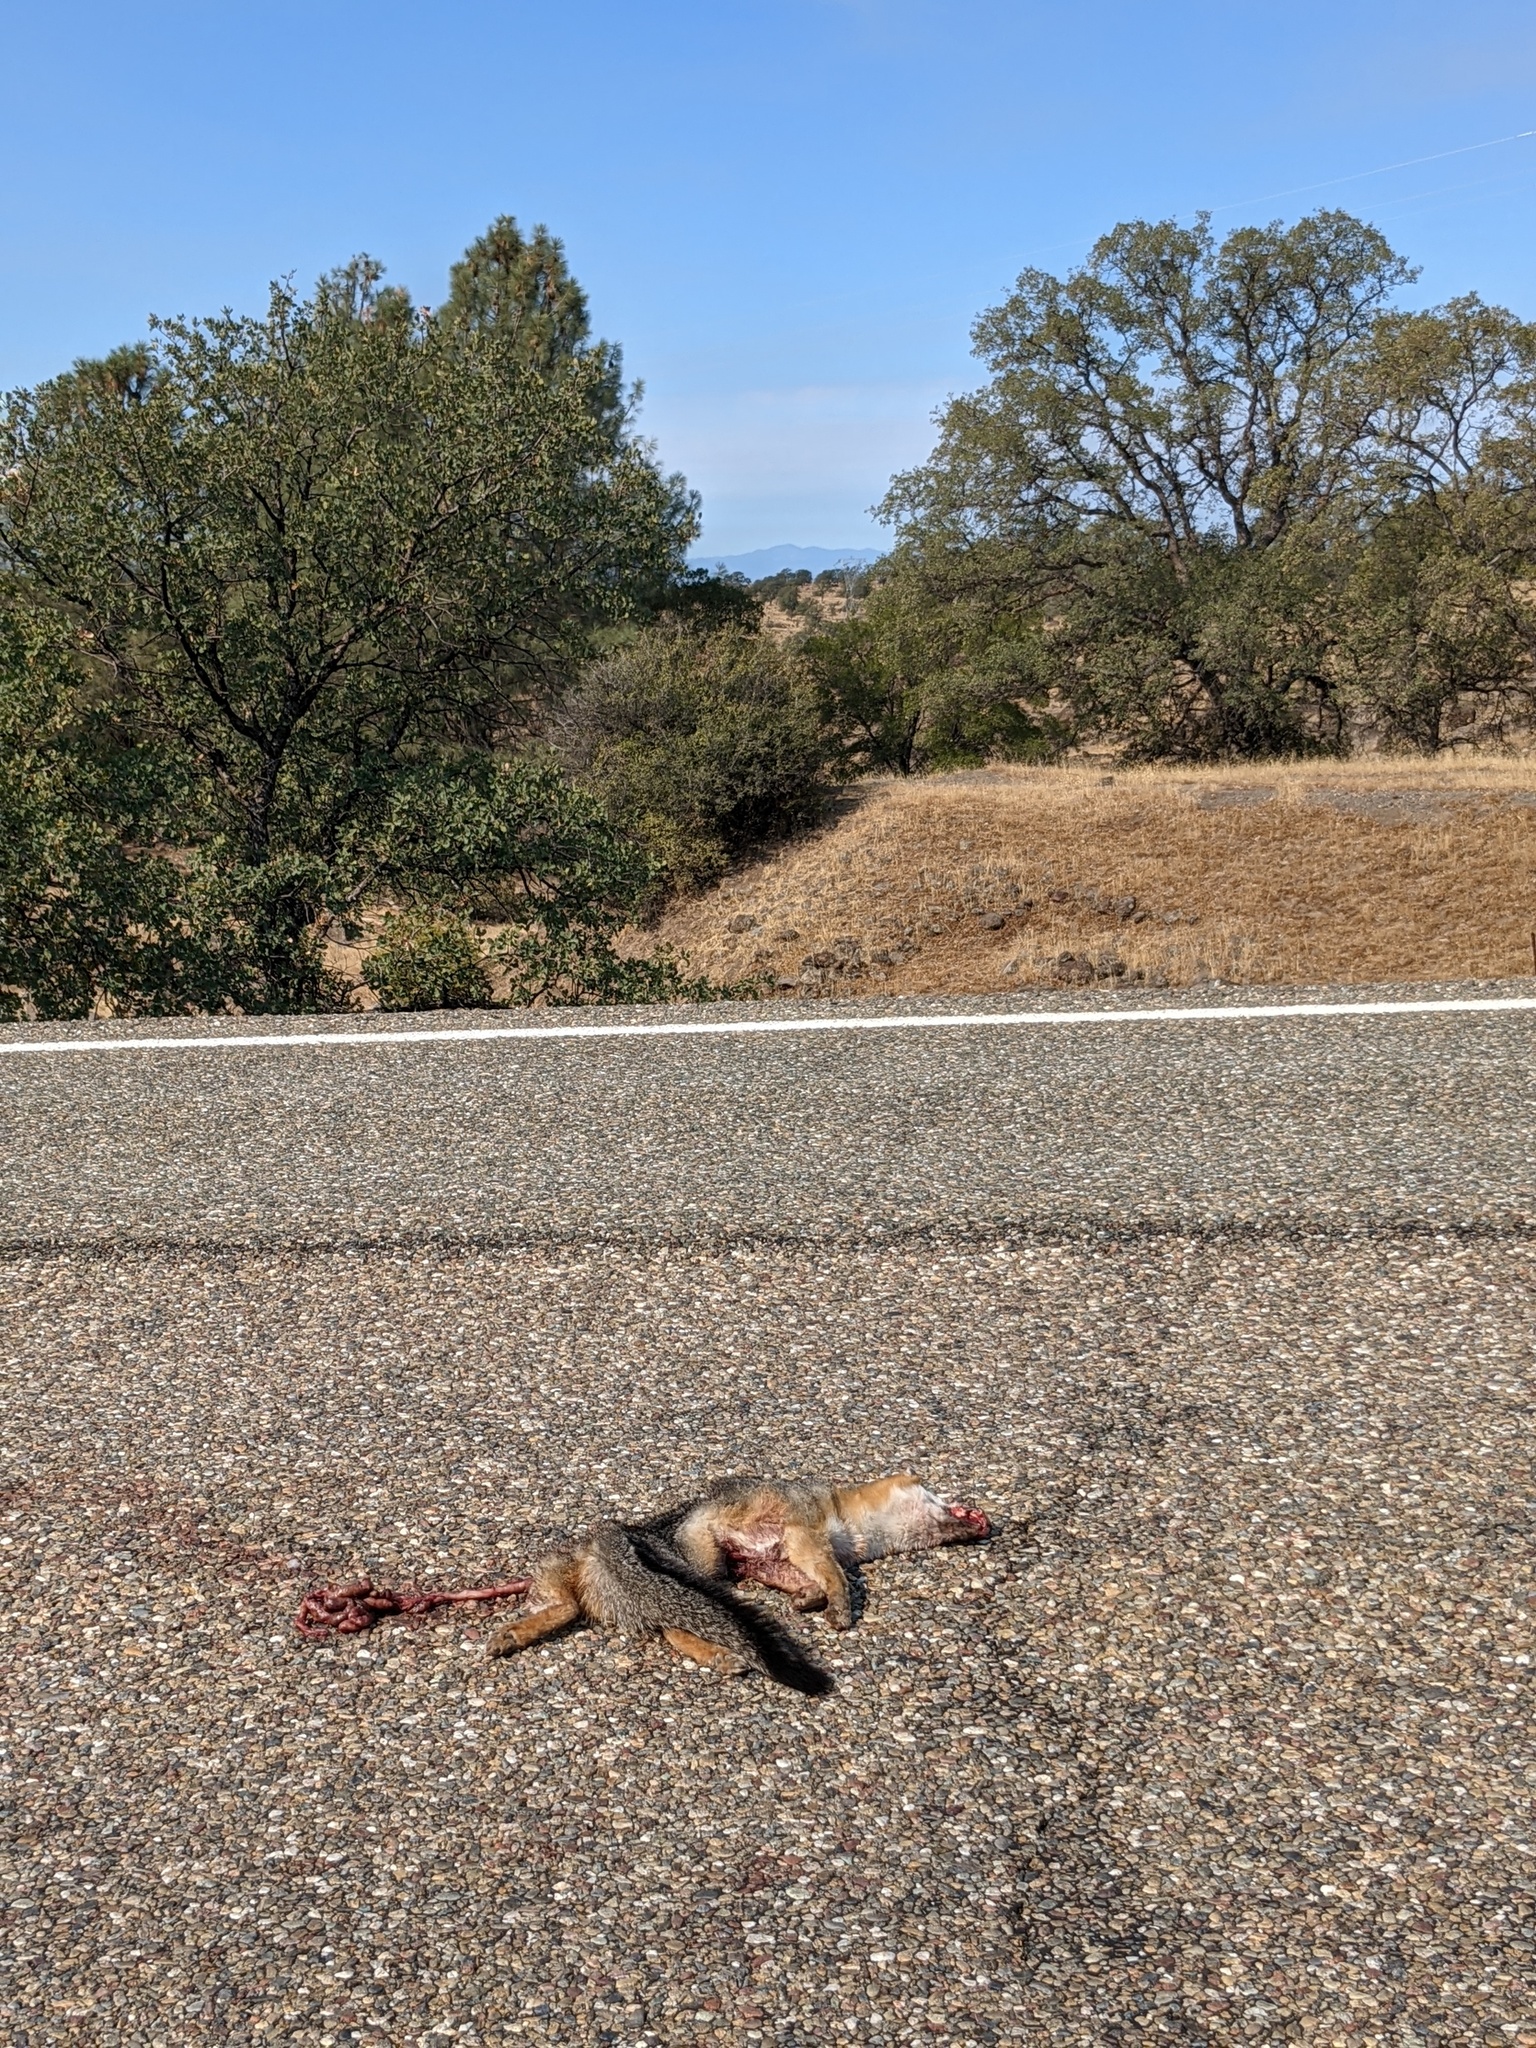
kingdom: Animalia
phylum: Chordata
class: Mammalia
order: Carnivora
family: Canidae
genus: Urocyon
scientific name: Urocyon cinereoargenteus
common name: Gray fox
